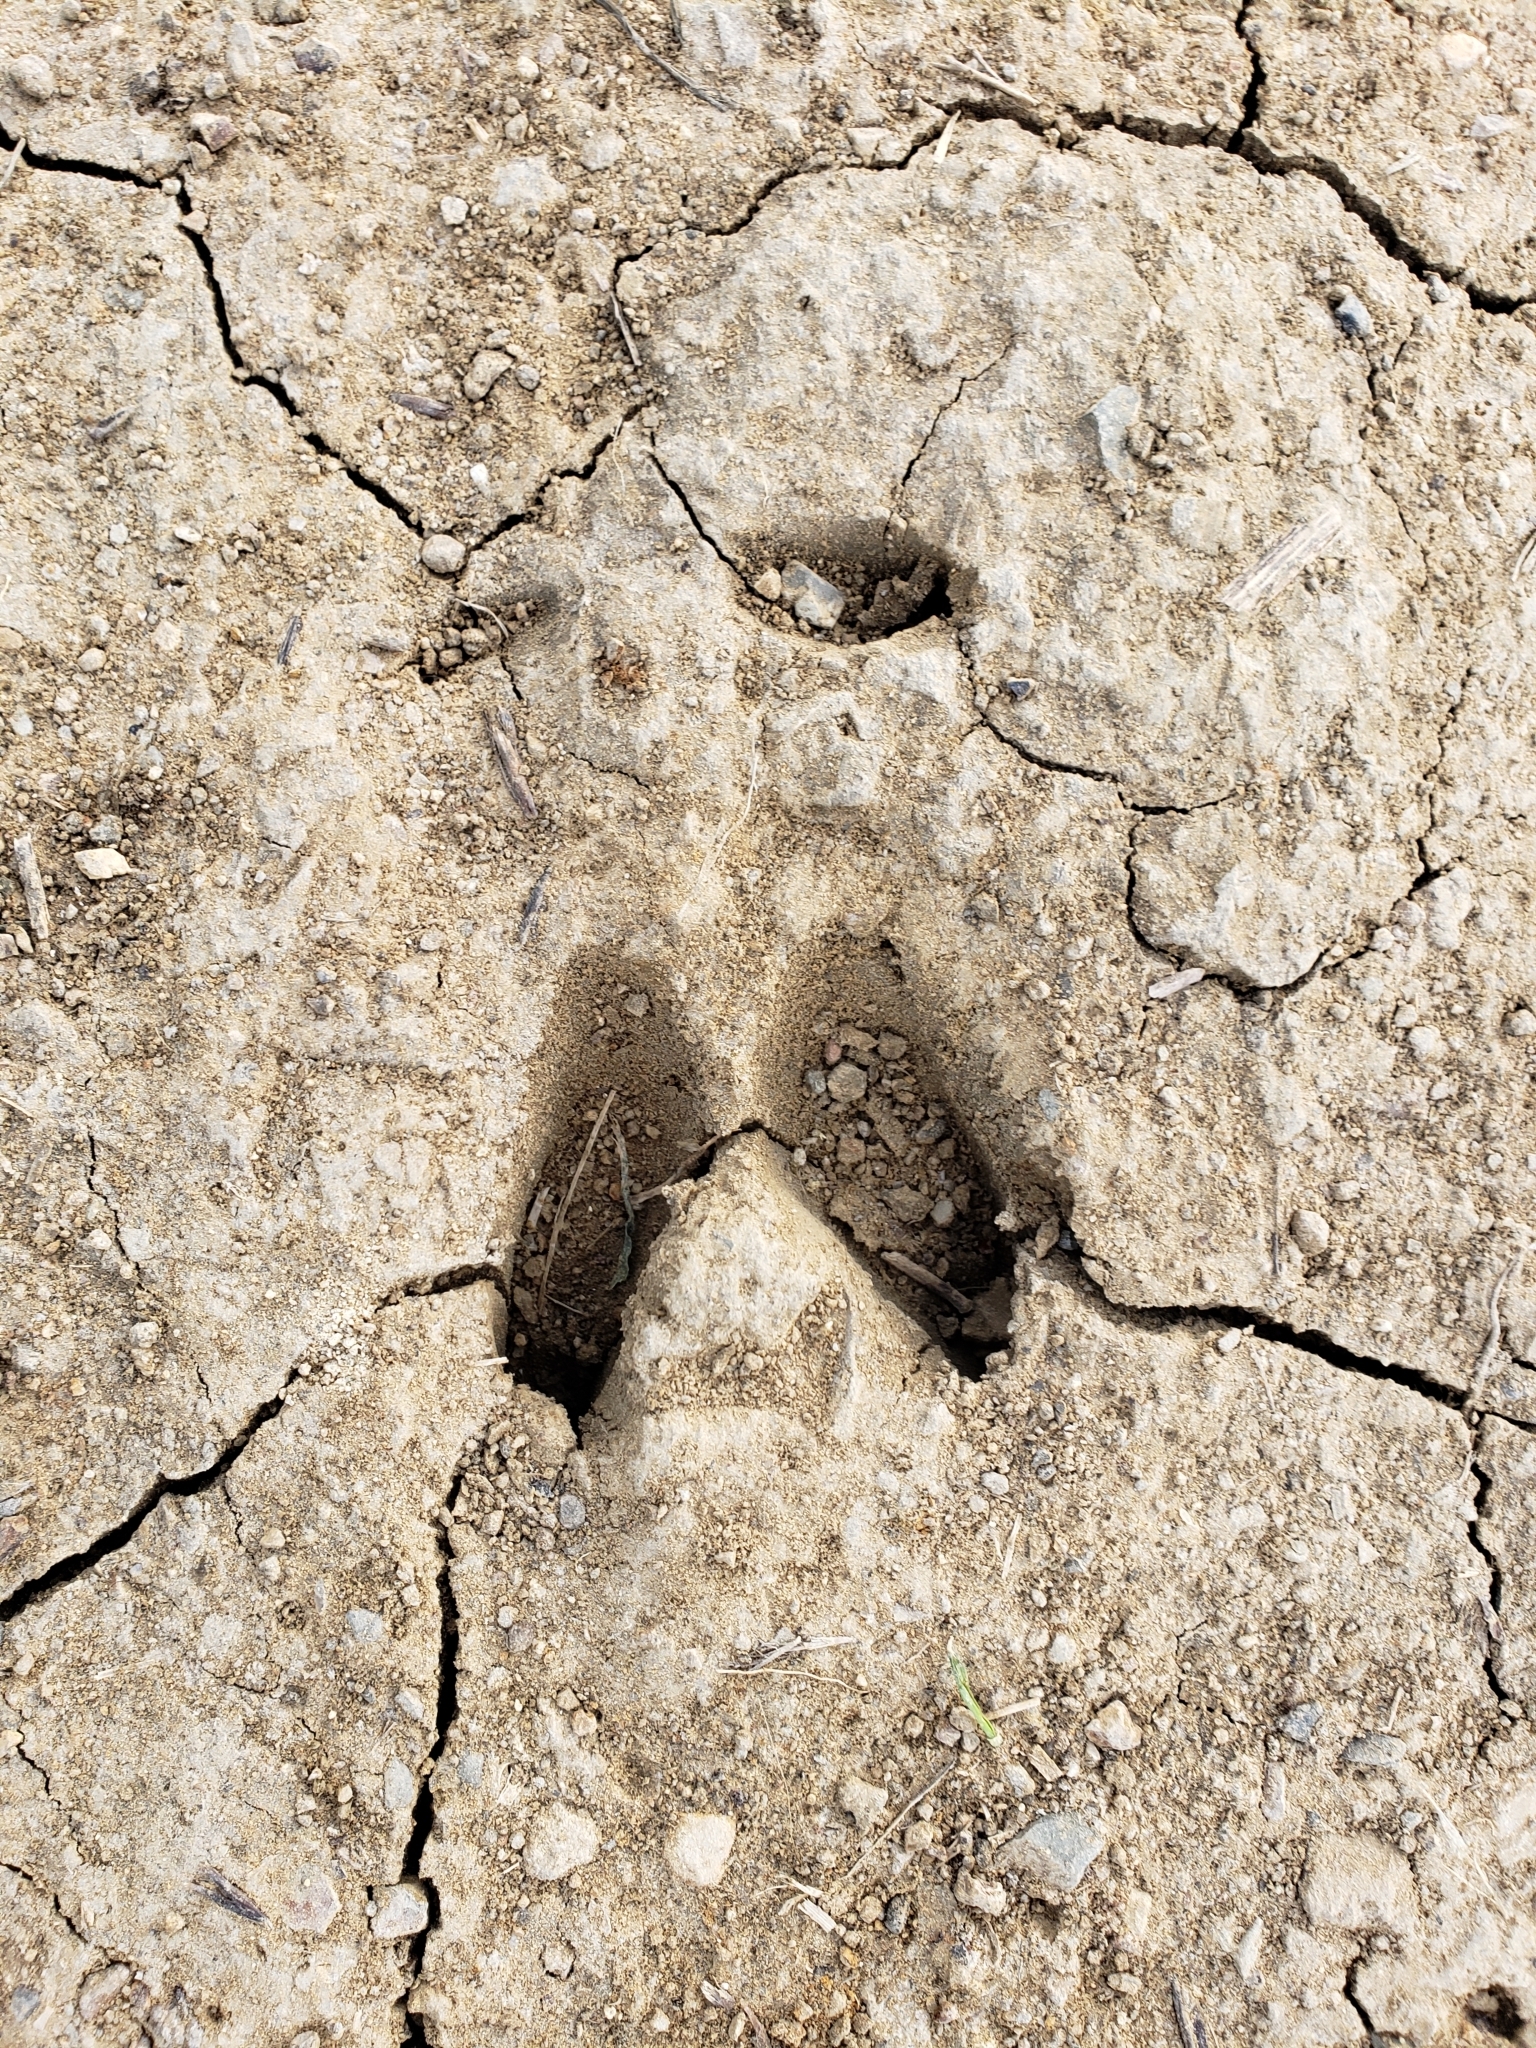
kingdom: Animalia
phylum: Chordata
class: Mammalia
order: Artiodactyla
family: Cervidae
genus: Odocoileus
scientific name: Odocoileus hemionus
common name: Mule deer
